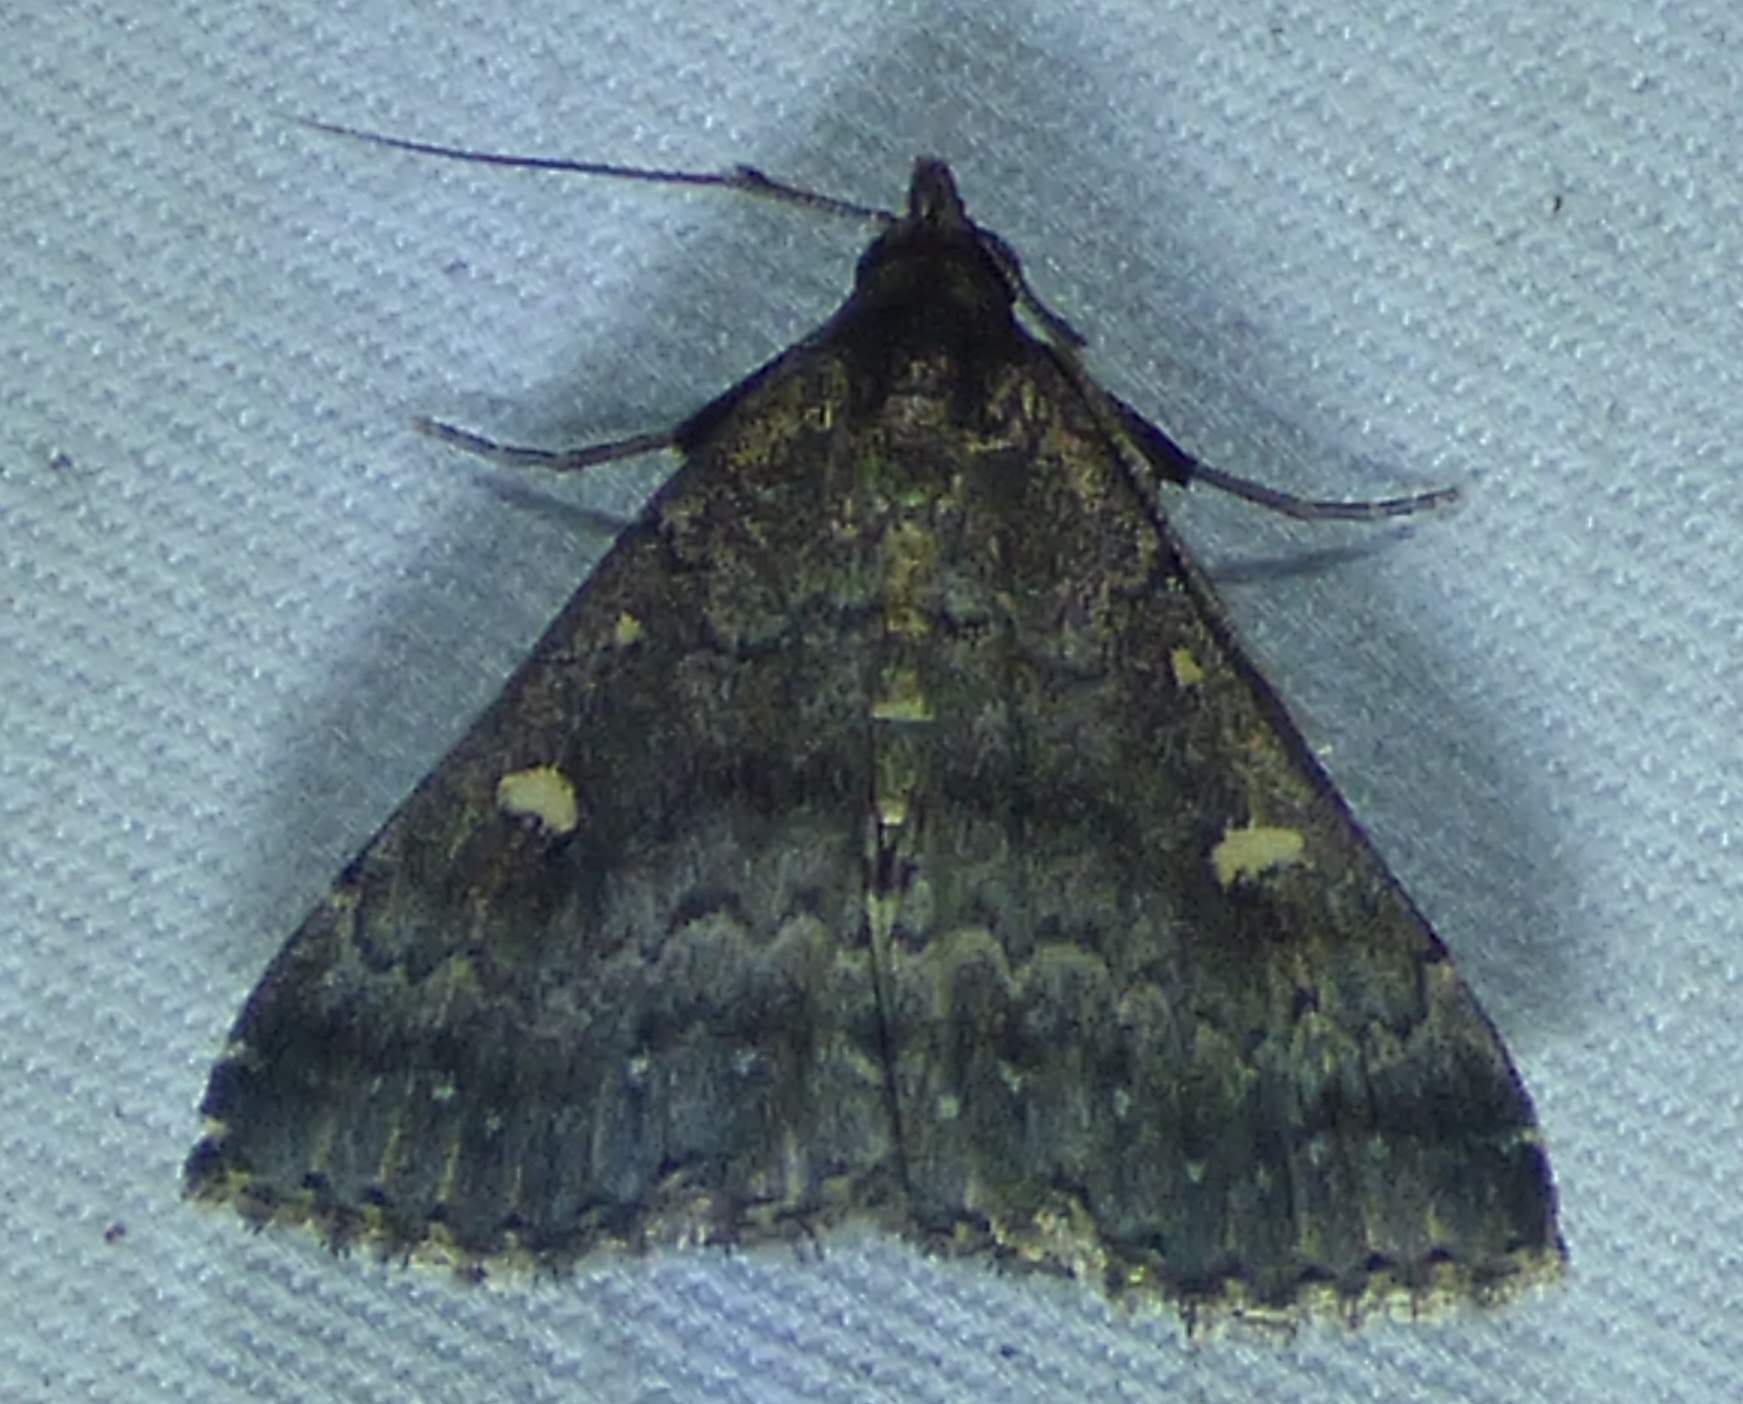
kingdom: Animalia
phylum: Arthropoda
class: Insecta
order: Lepidoptera
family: Erebidae
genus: Tetanolita
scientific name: Tetanolita mynesalis
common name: Smoky tetanolita moth
